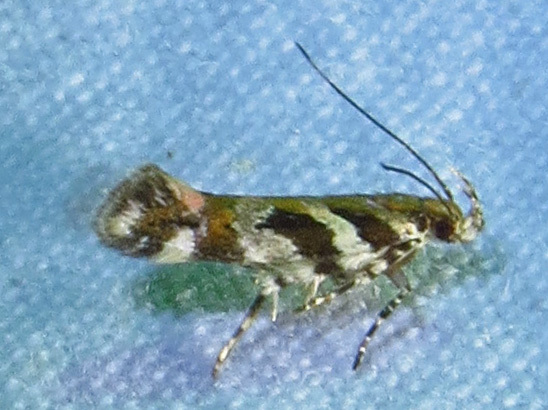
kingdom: Animalia
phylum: Arthropoda
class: Insecta
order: Lepidoptera
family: Gelechiidae
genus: Aristotelia
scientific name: Aristotelia roseosuffusella
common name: Pink-washed aristotelia moth
